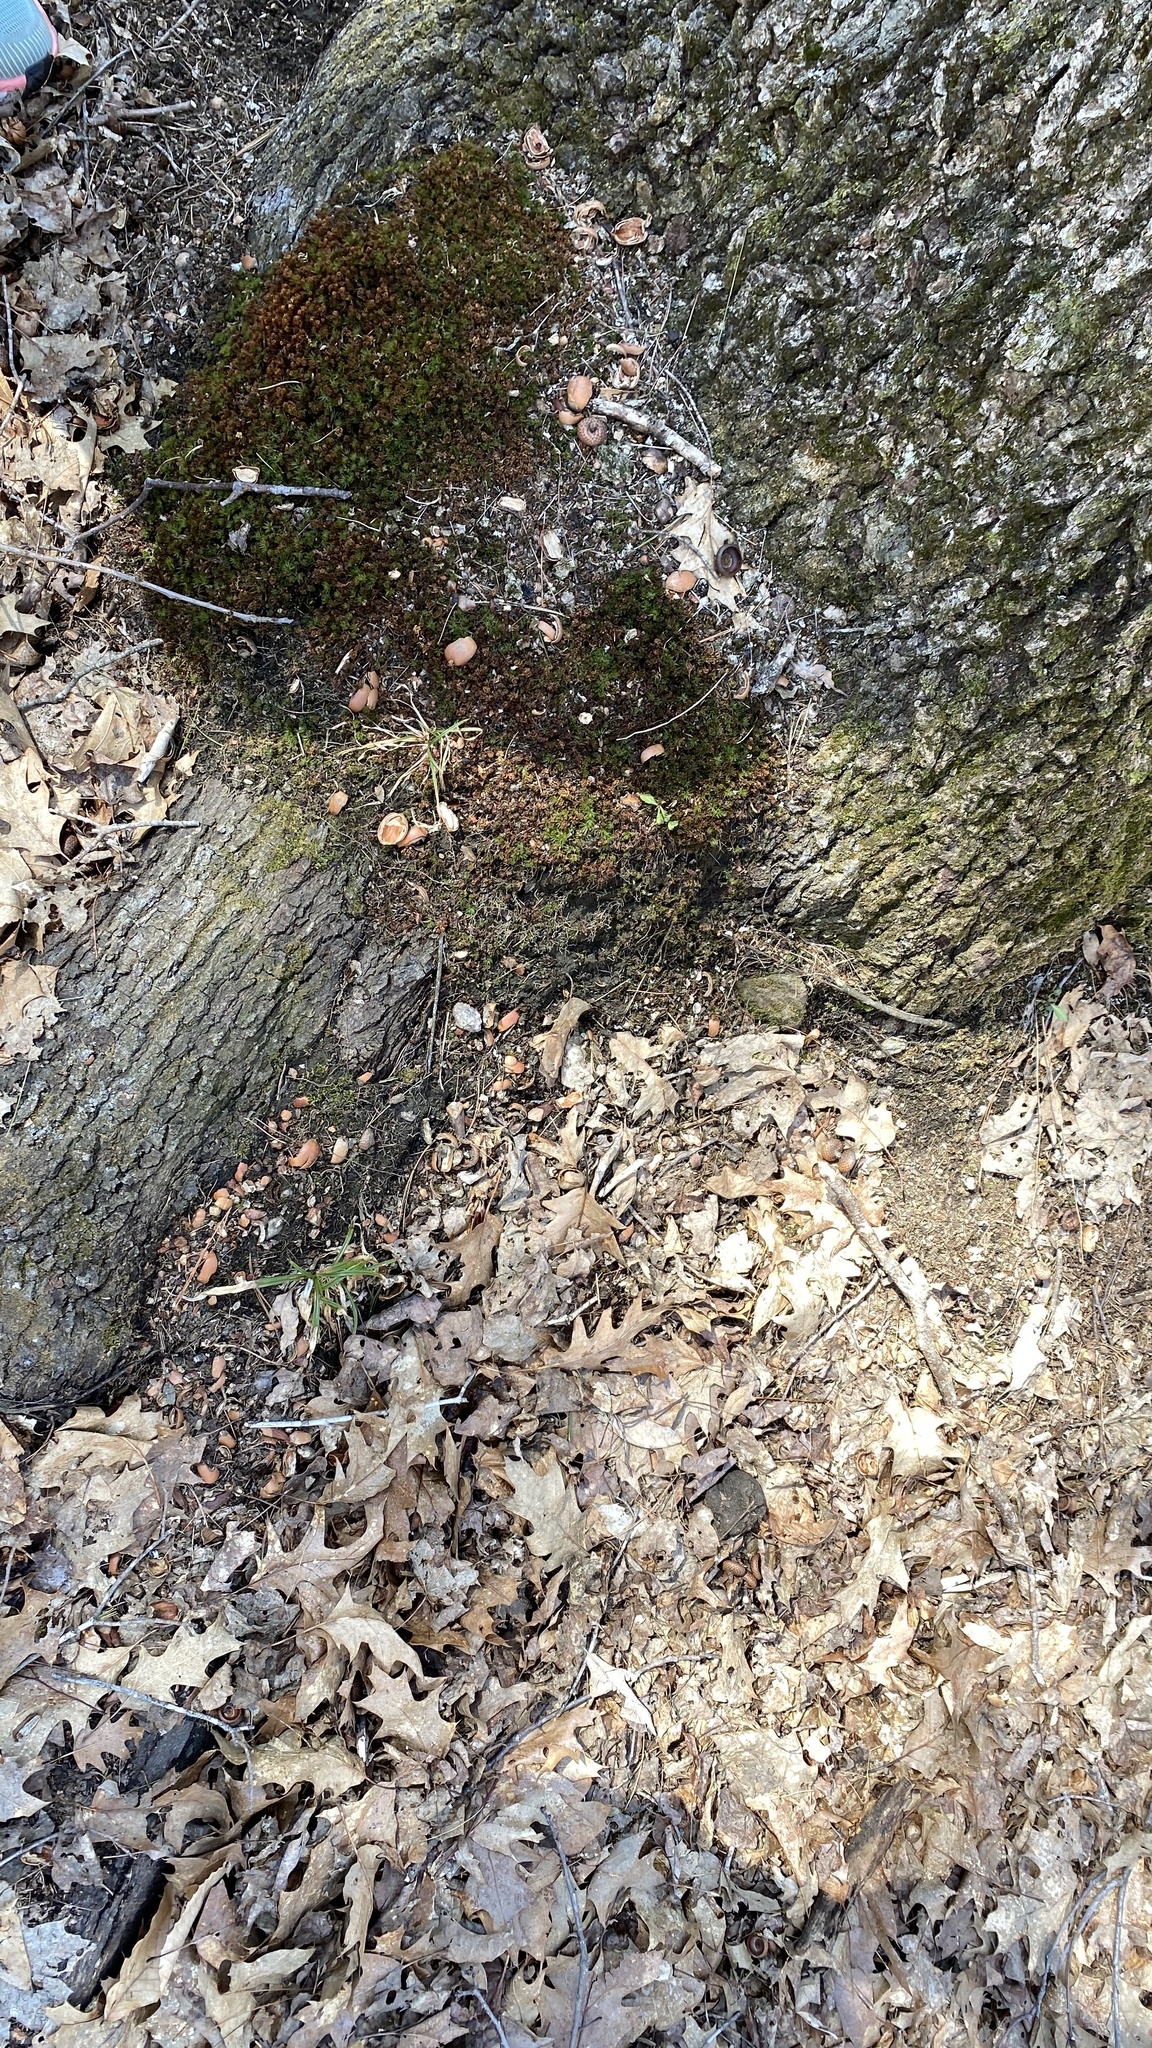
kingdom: Plantae
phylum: Tracheophyta
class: Magnoliopsida
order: Fagales
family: Fagaceae
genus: Quercus
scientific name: Quercus rubra
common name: Red oak
